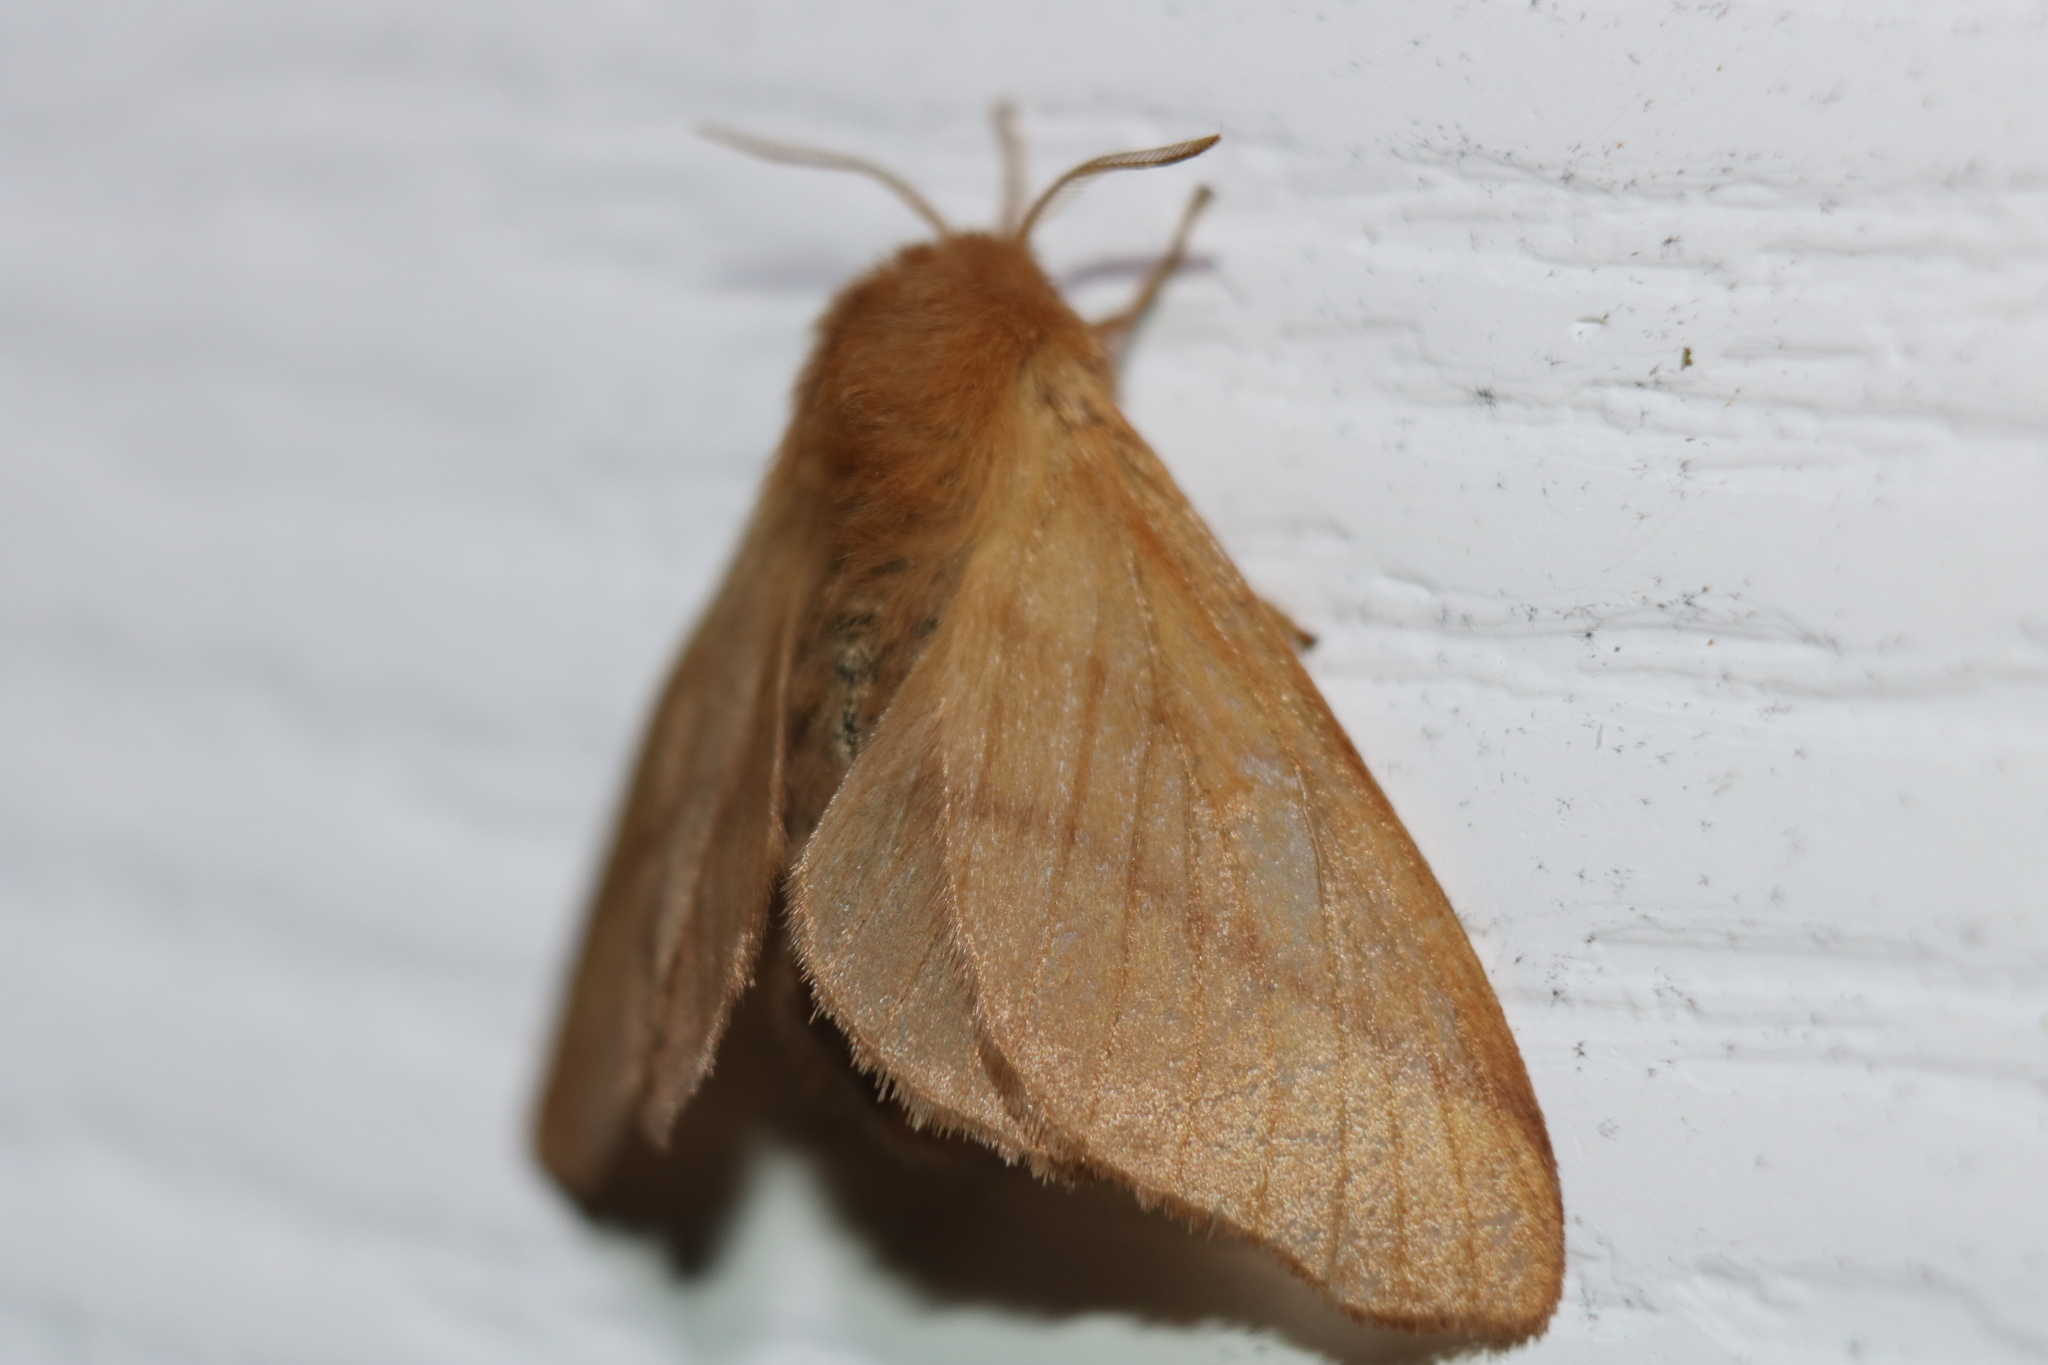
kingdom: Animalia
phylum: Arthropoda
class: Insecta
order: Lepidoptera
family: Lasiocampidae
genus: Malacosoma
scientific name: Malacosoma disstria
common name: Forest tent caterpillar
